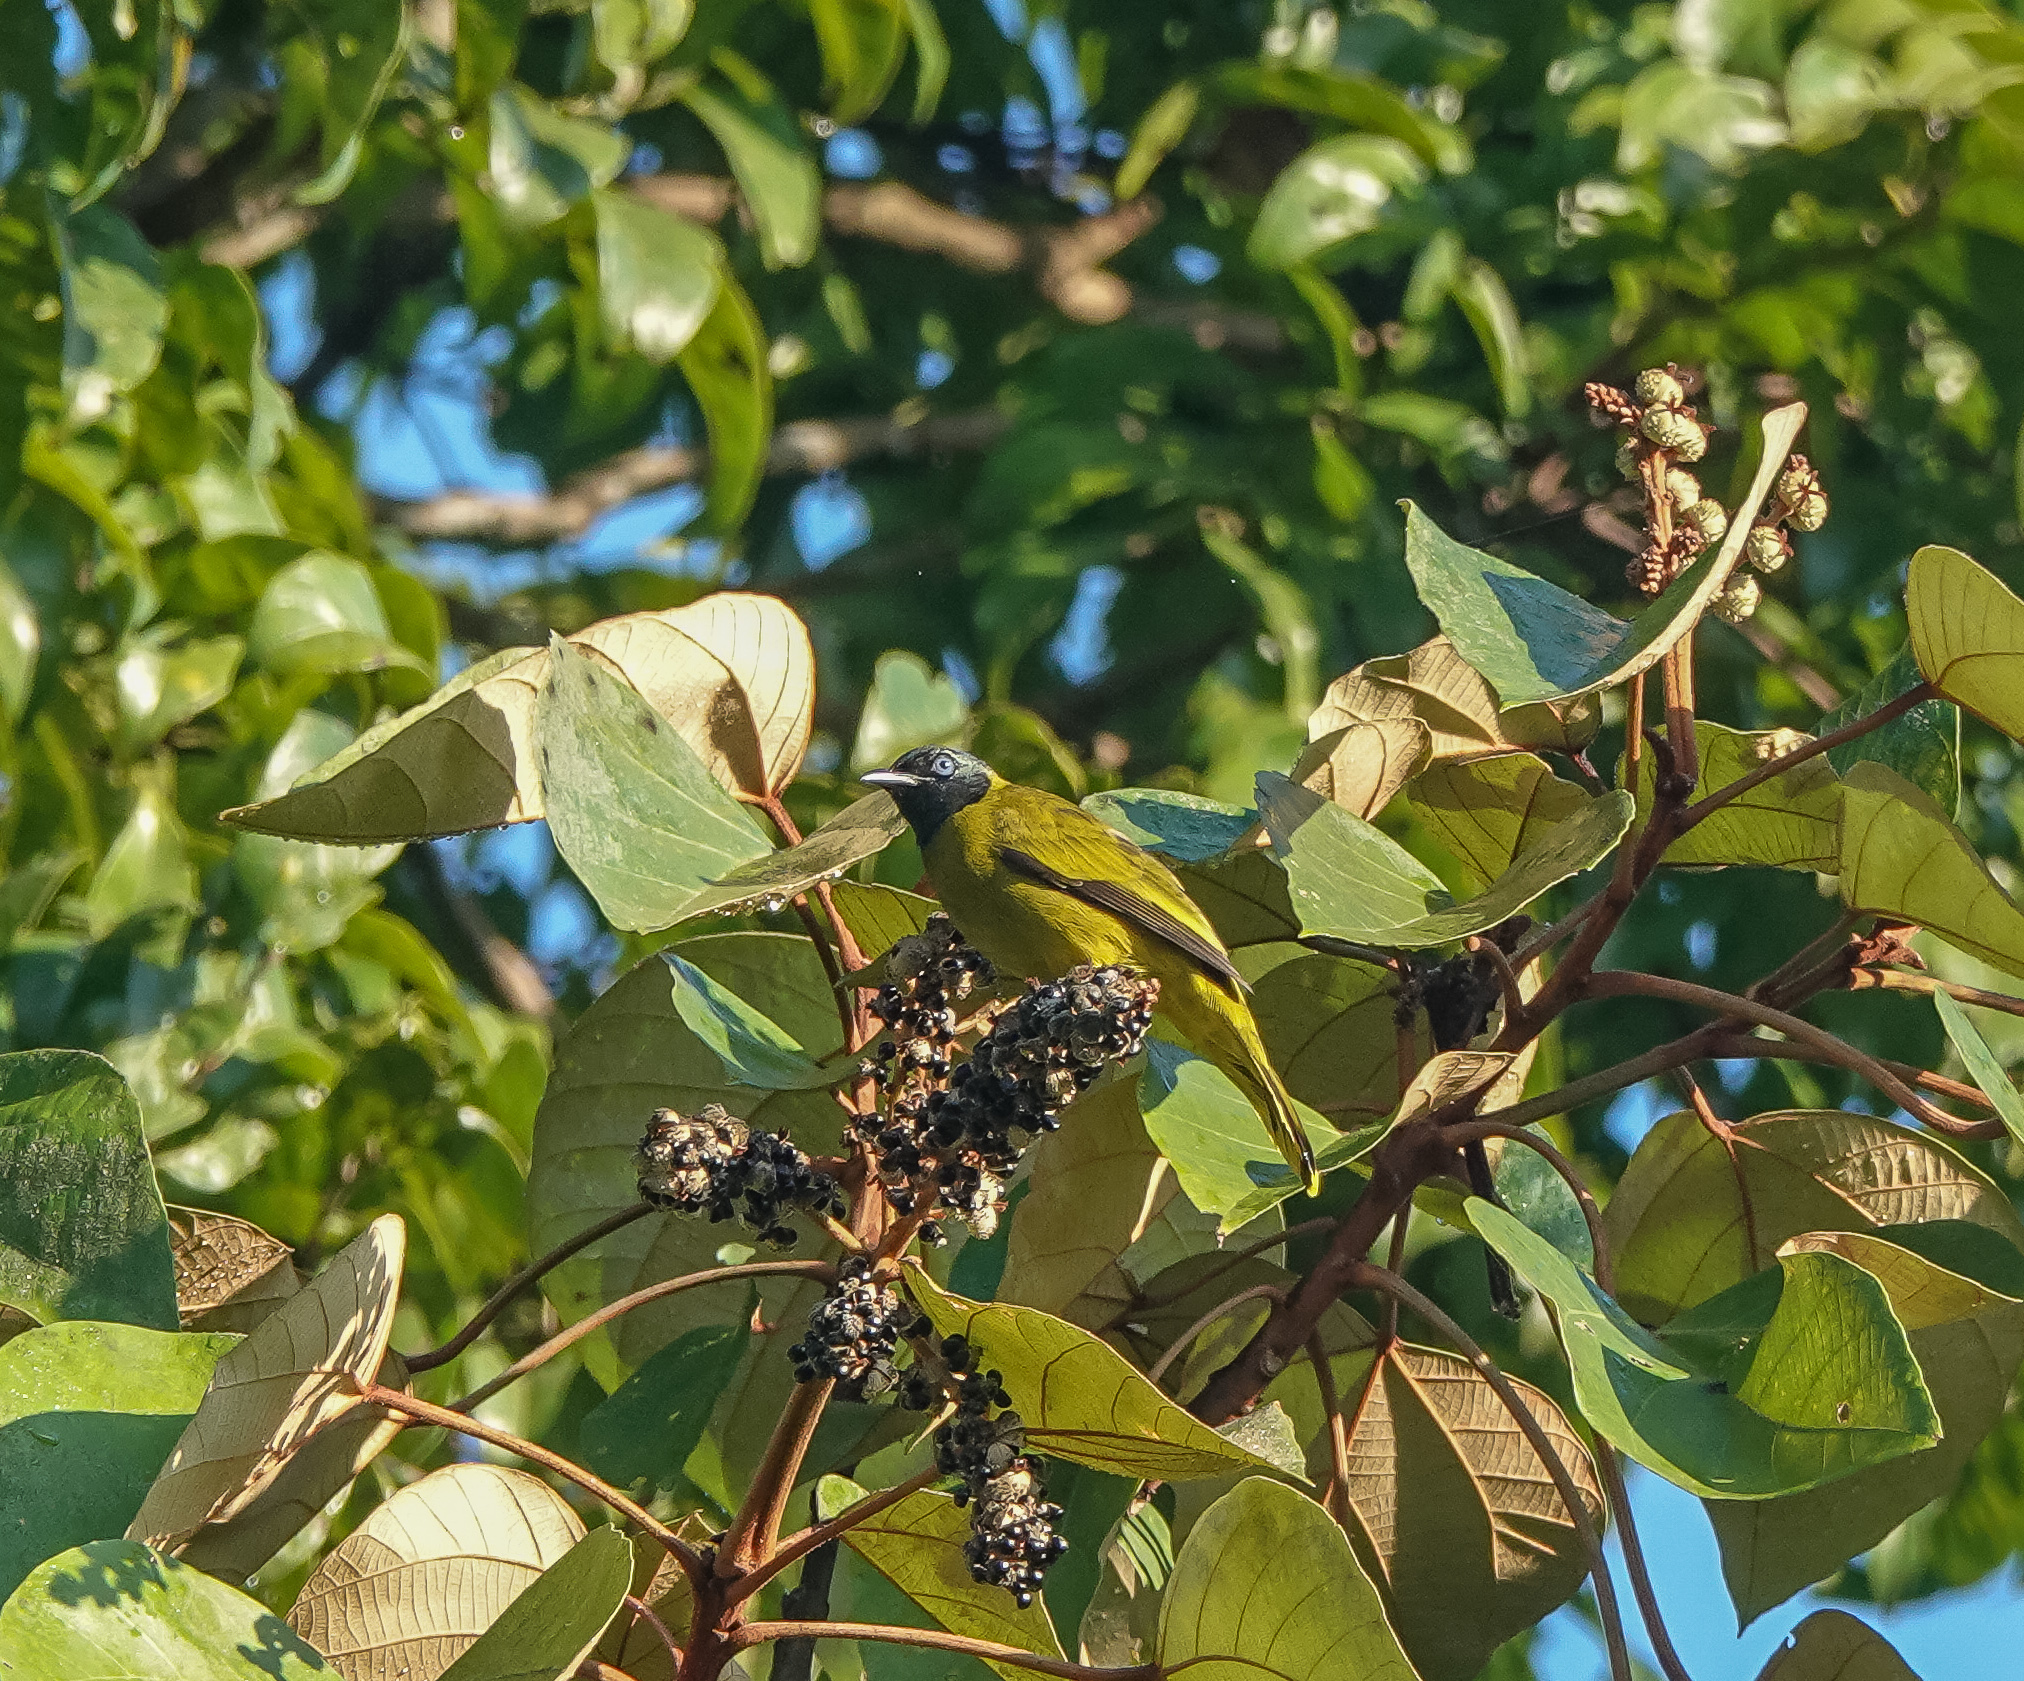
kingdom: Animalia
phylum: Chordata
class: Aves
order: Passeriformes
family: Pycnonotidae
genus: Microtarsus
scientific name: Microtarsus
